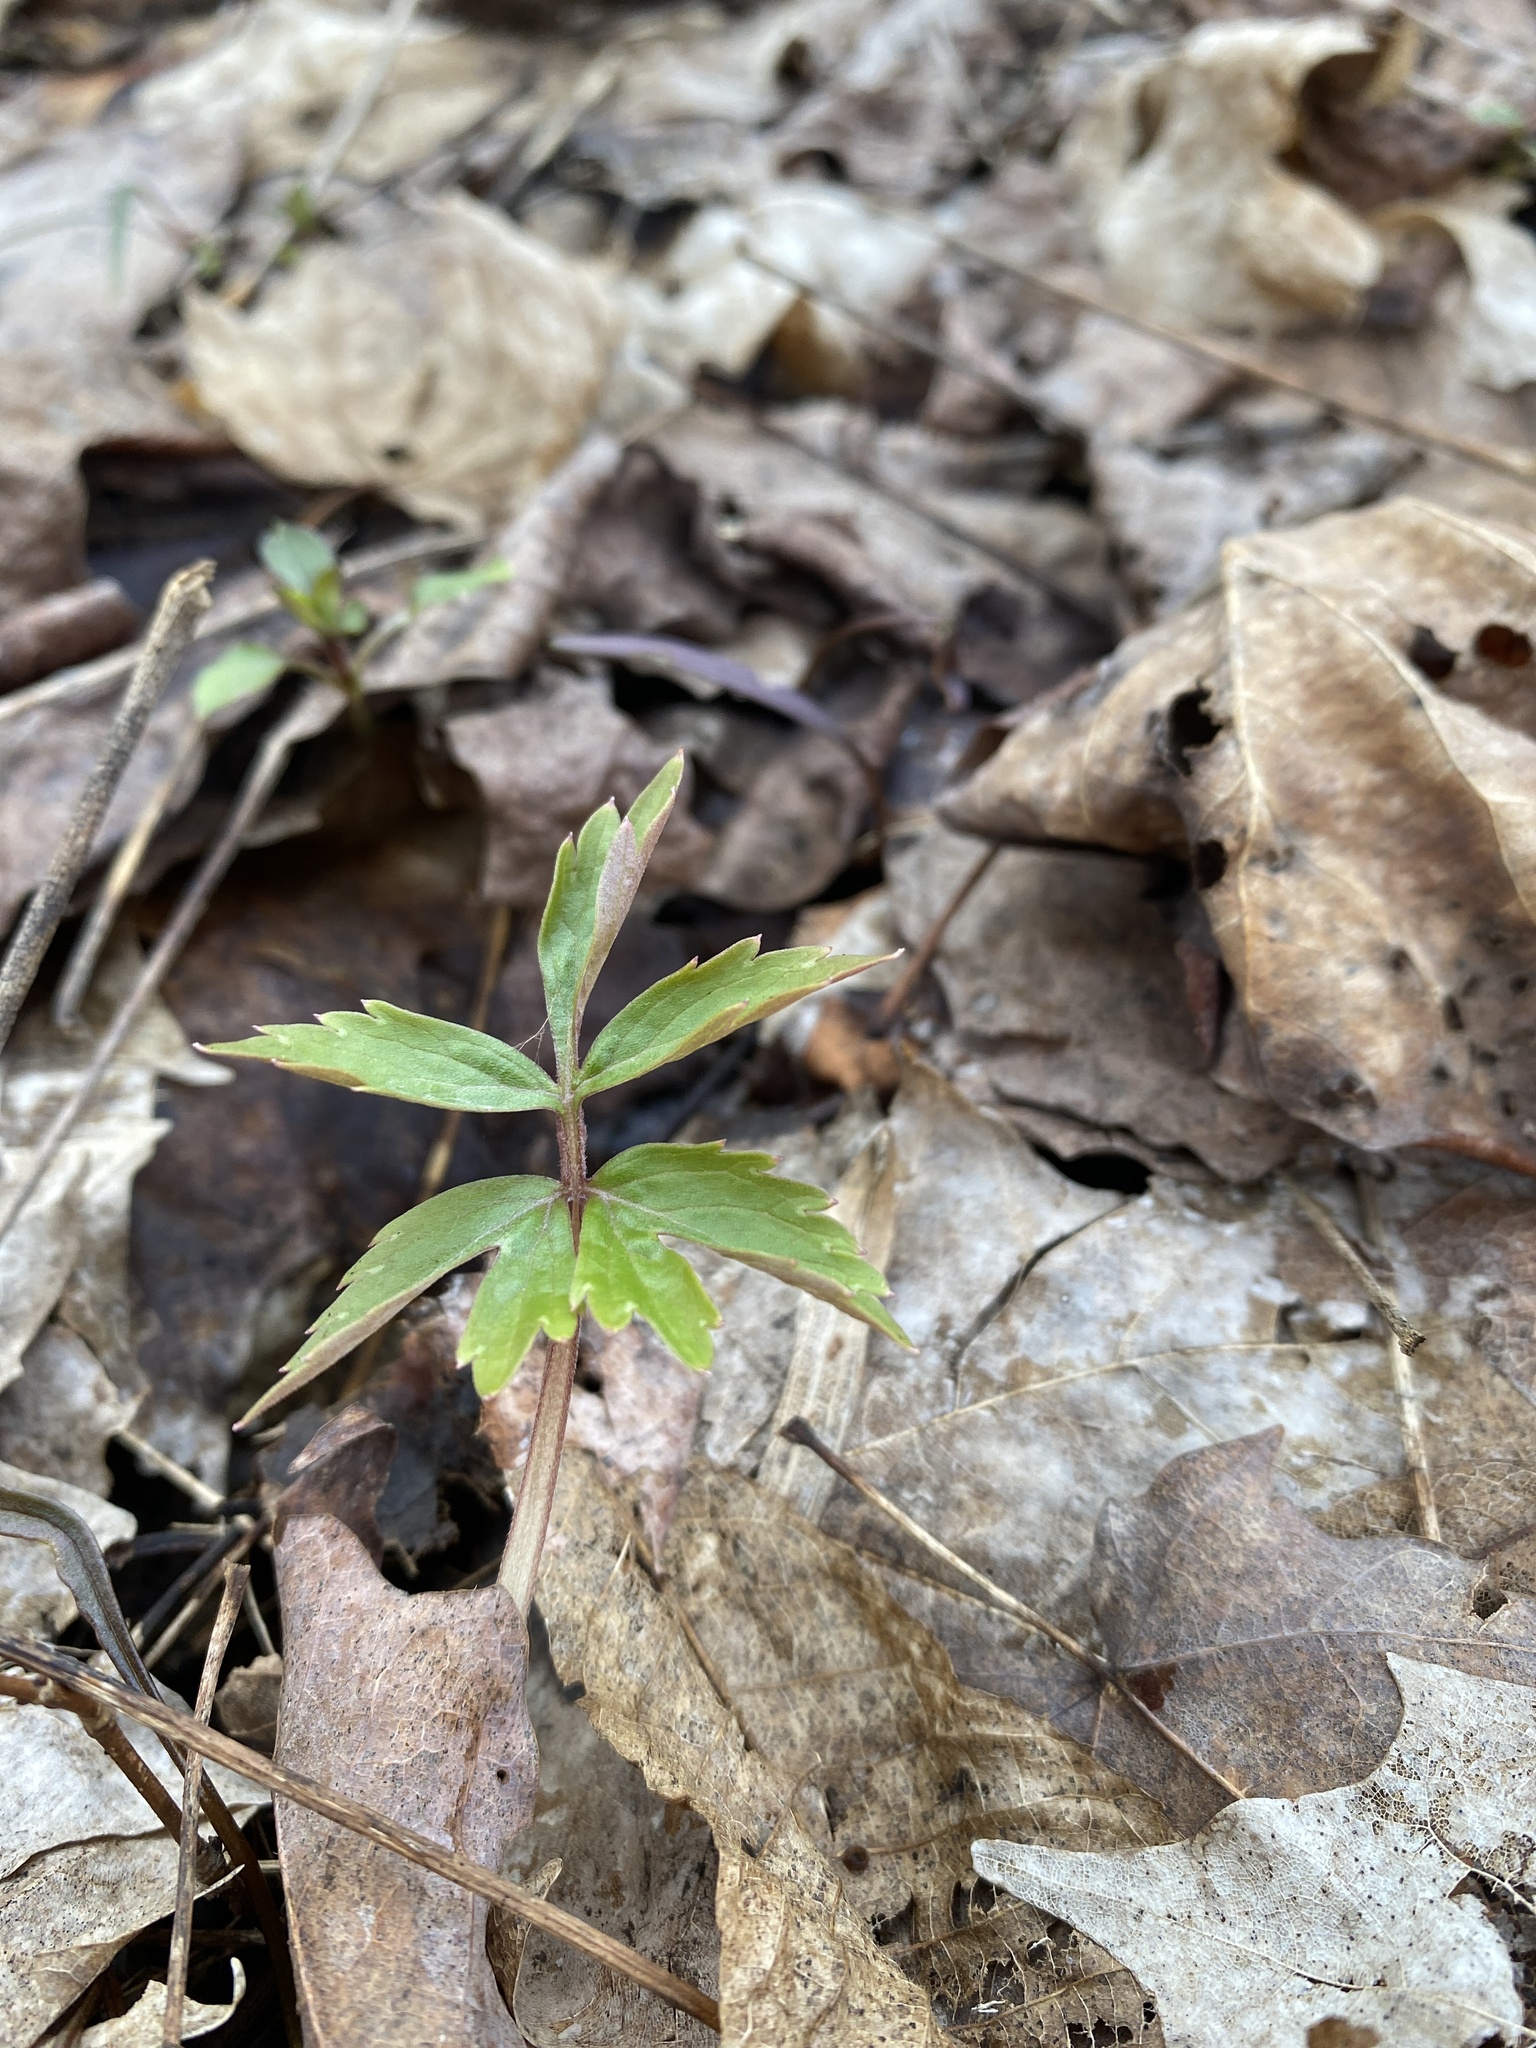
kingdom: Plantae
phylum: Tracheophyta
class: Magnoliopsida
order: Boraginales
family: Hydrophyllaceae
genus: Hydrophyllum
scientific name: Hydrophyllum virginianum
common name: Virginia waterleaf
